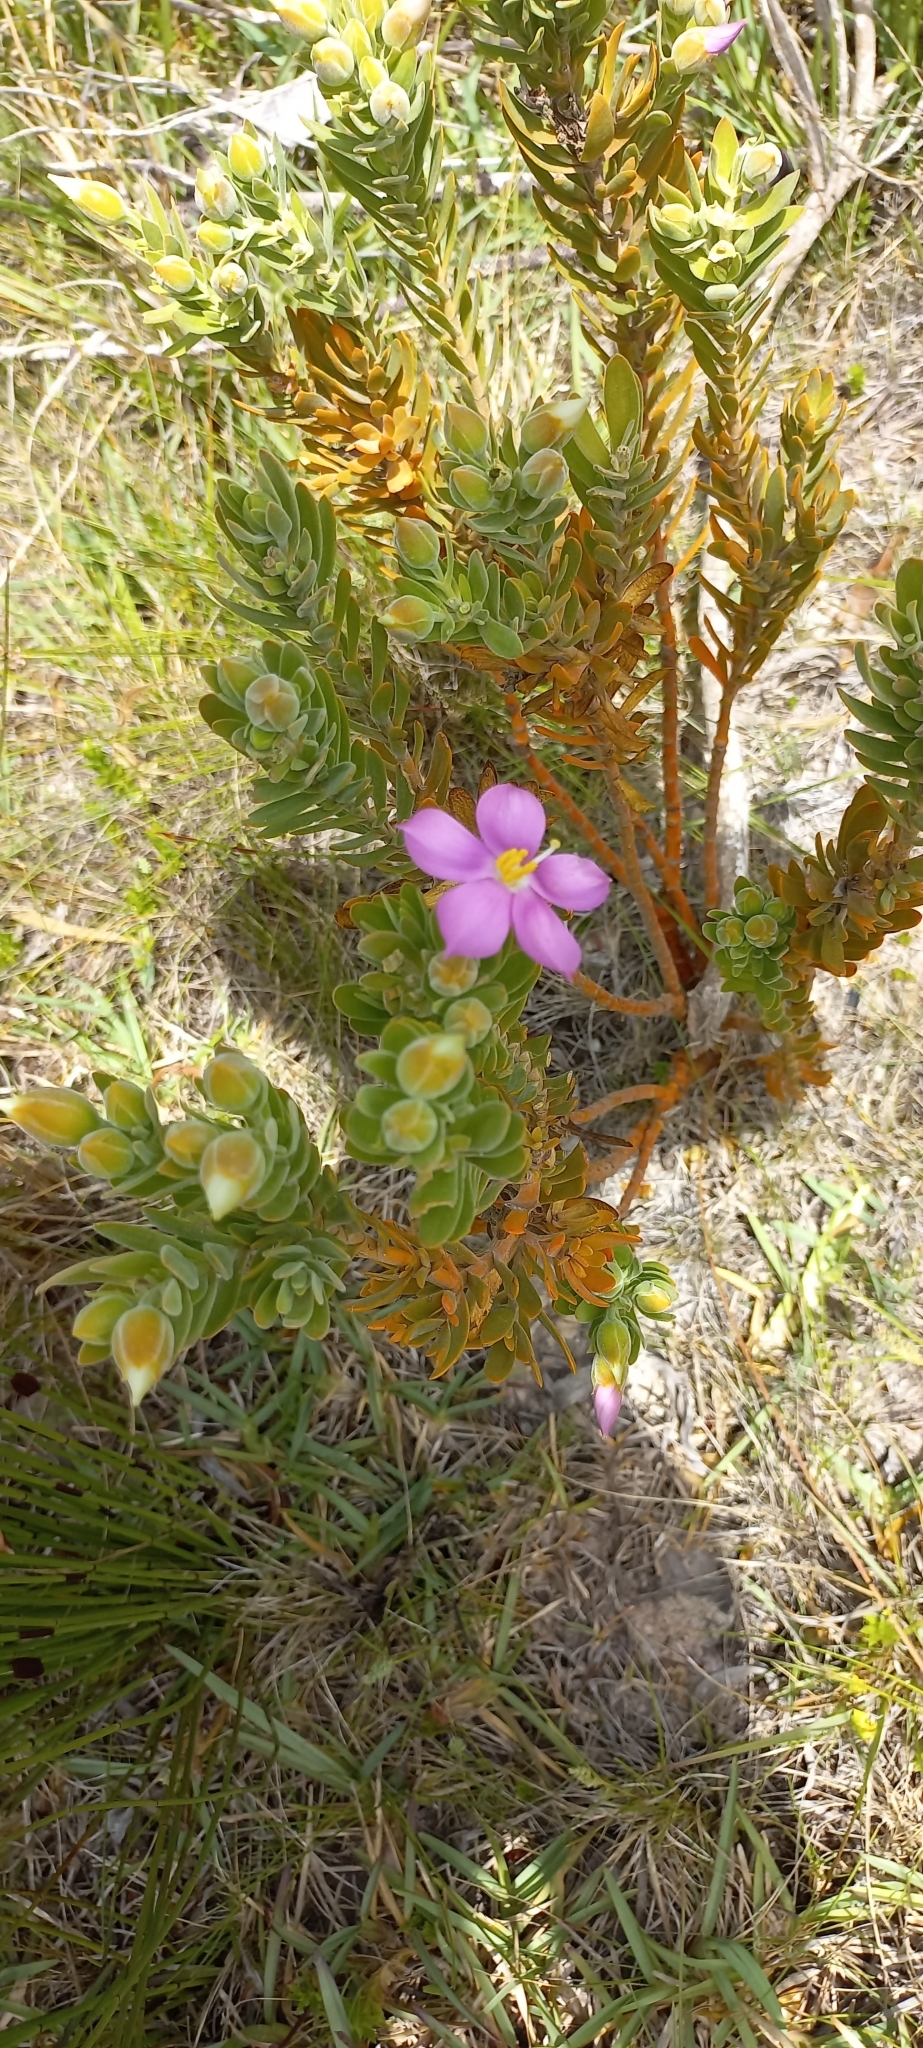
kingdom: Plantae
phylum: Tracheophyta
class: Magnoliopsida
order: Gentianales
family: Gentianaceae
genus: Orphium
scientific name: Orphium frutescens
